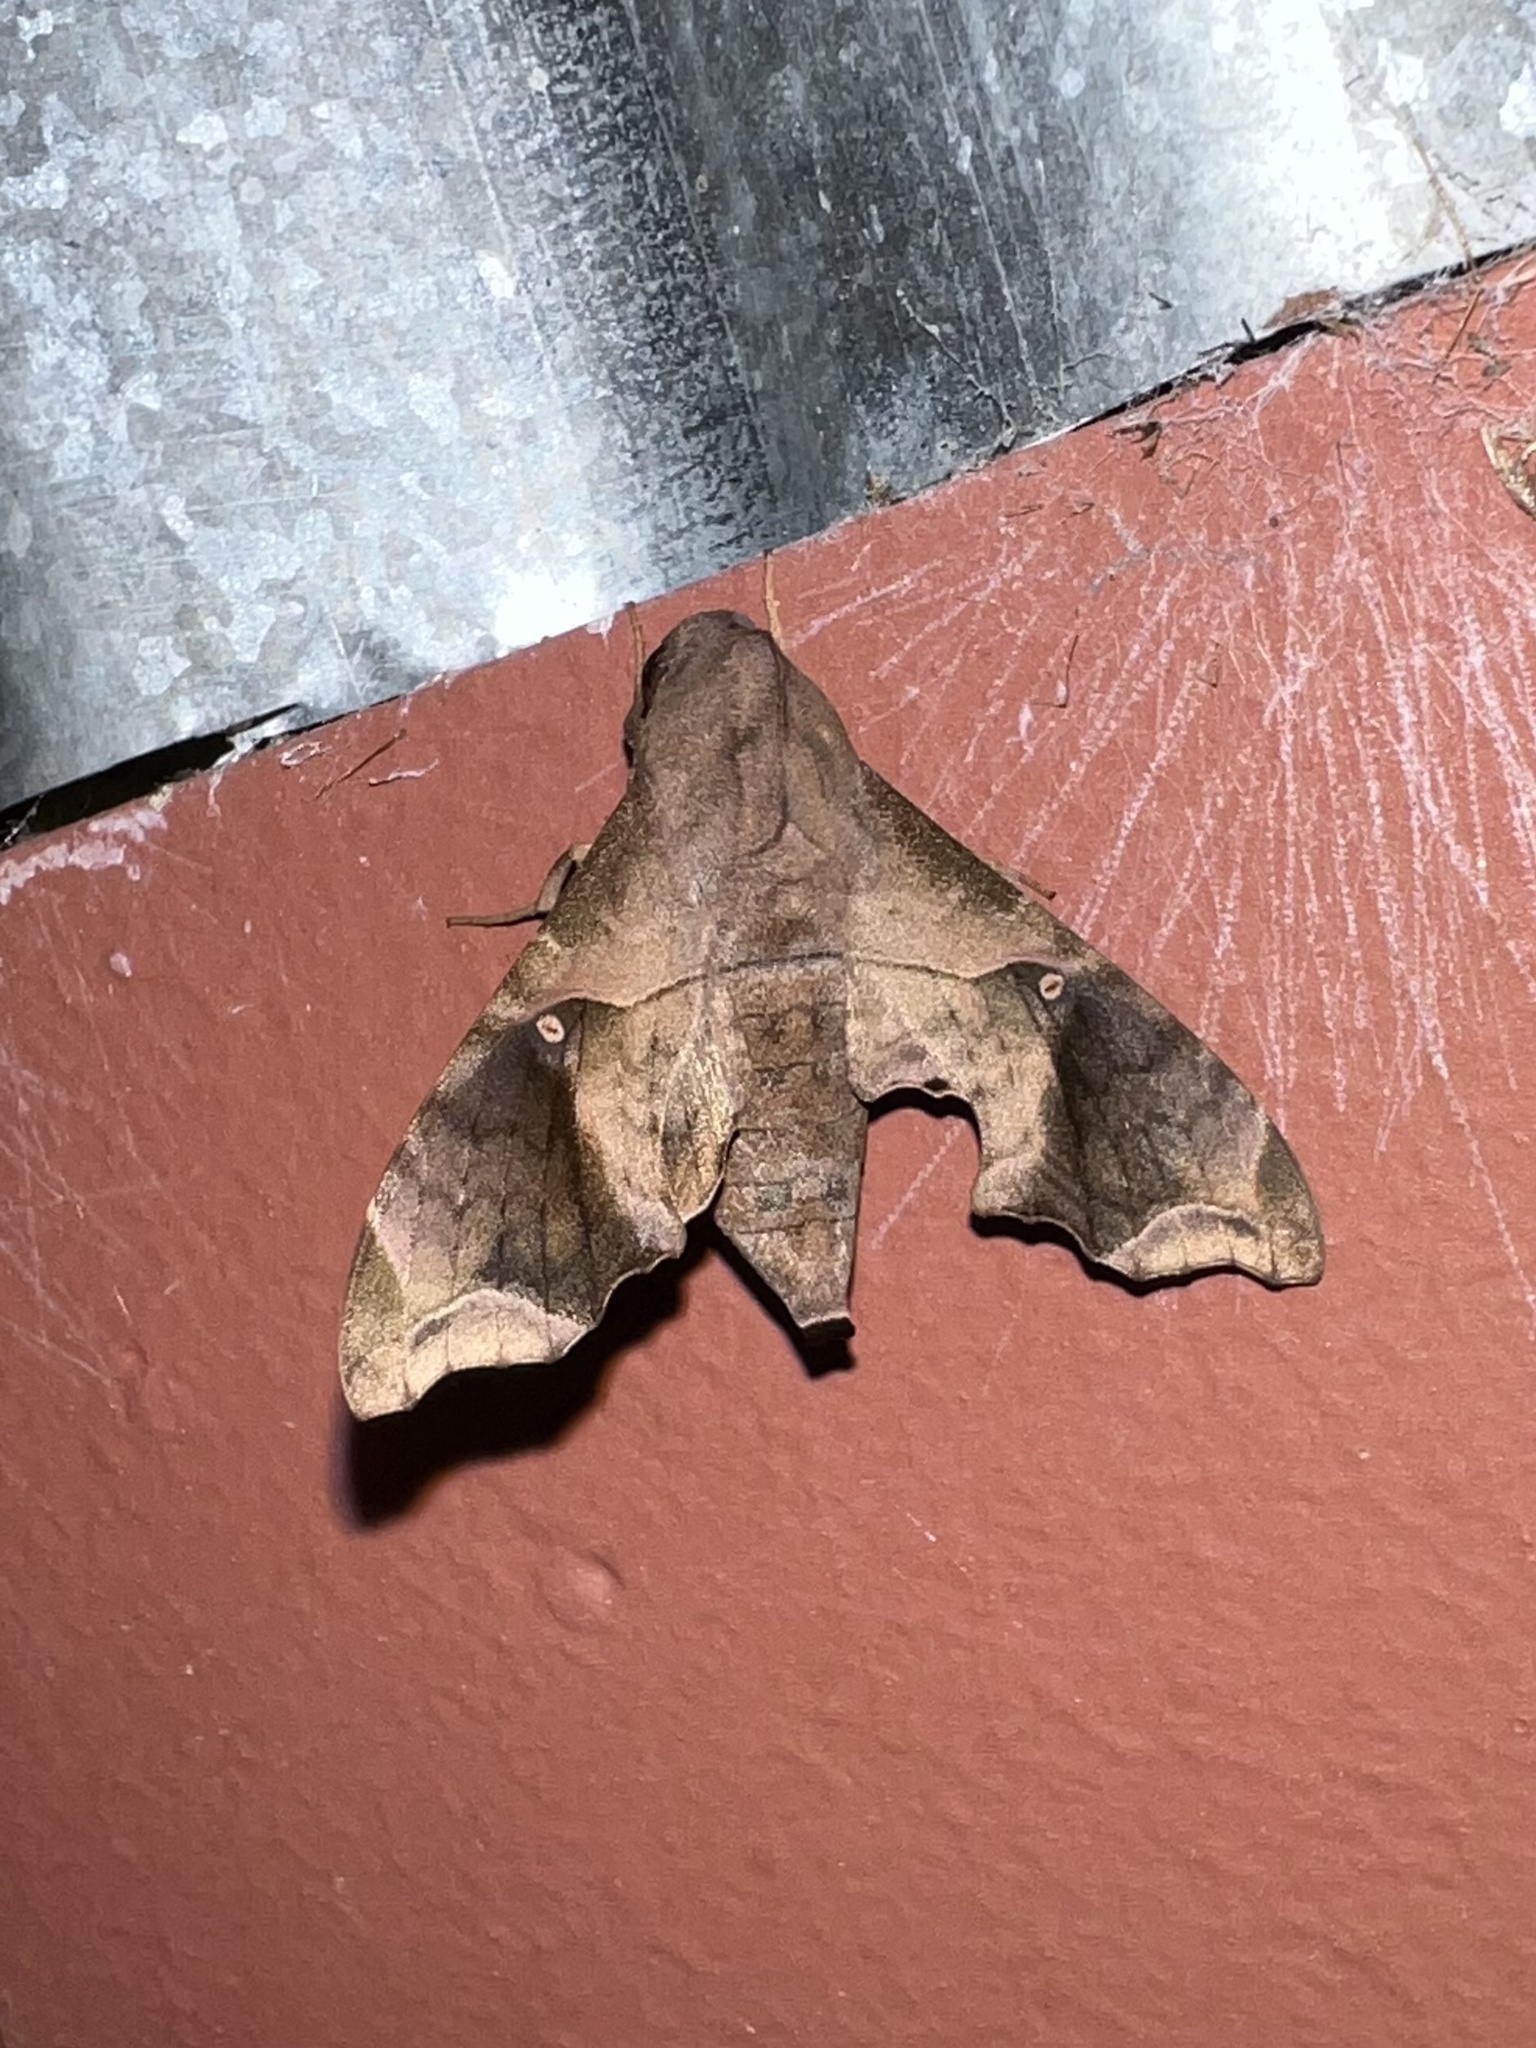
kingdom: Animalia
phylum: Arthropoda
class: Insecta
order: Lepidoptera
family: Sphingidae
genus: Enyo
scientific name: Enyo lugubris
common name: Mournful sphinx
